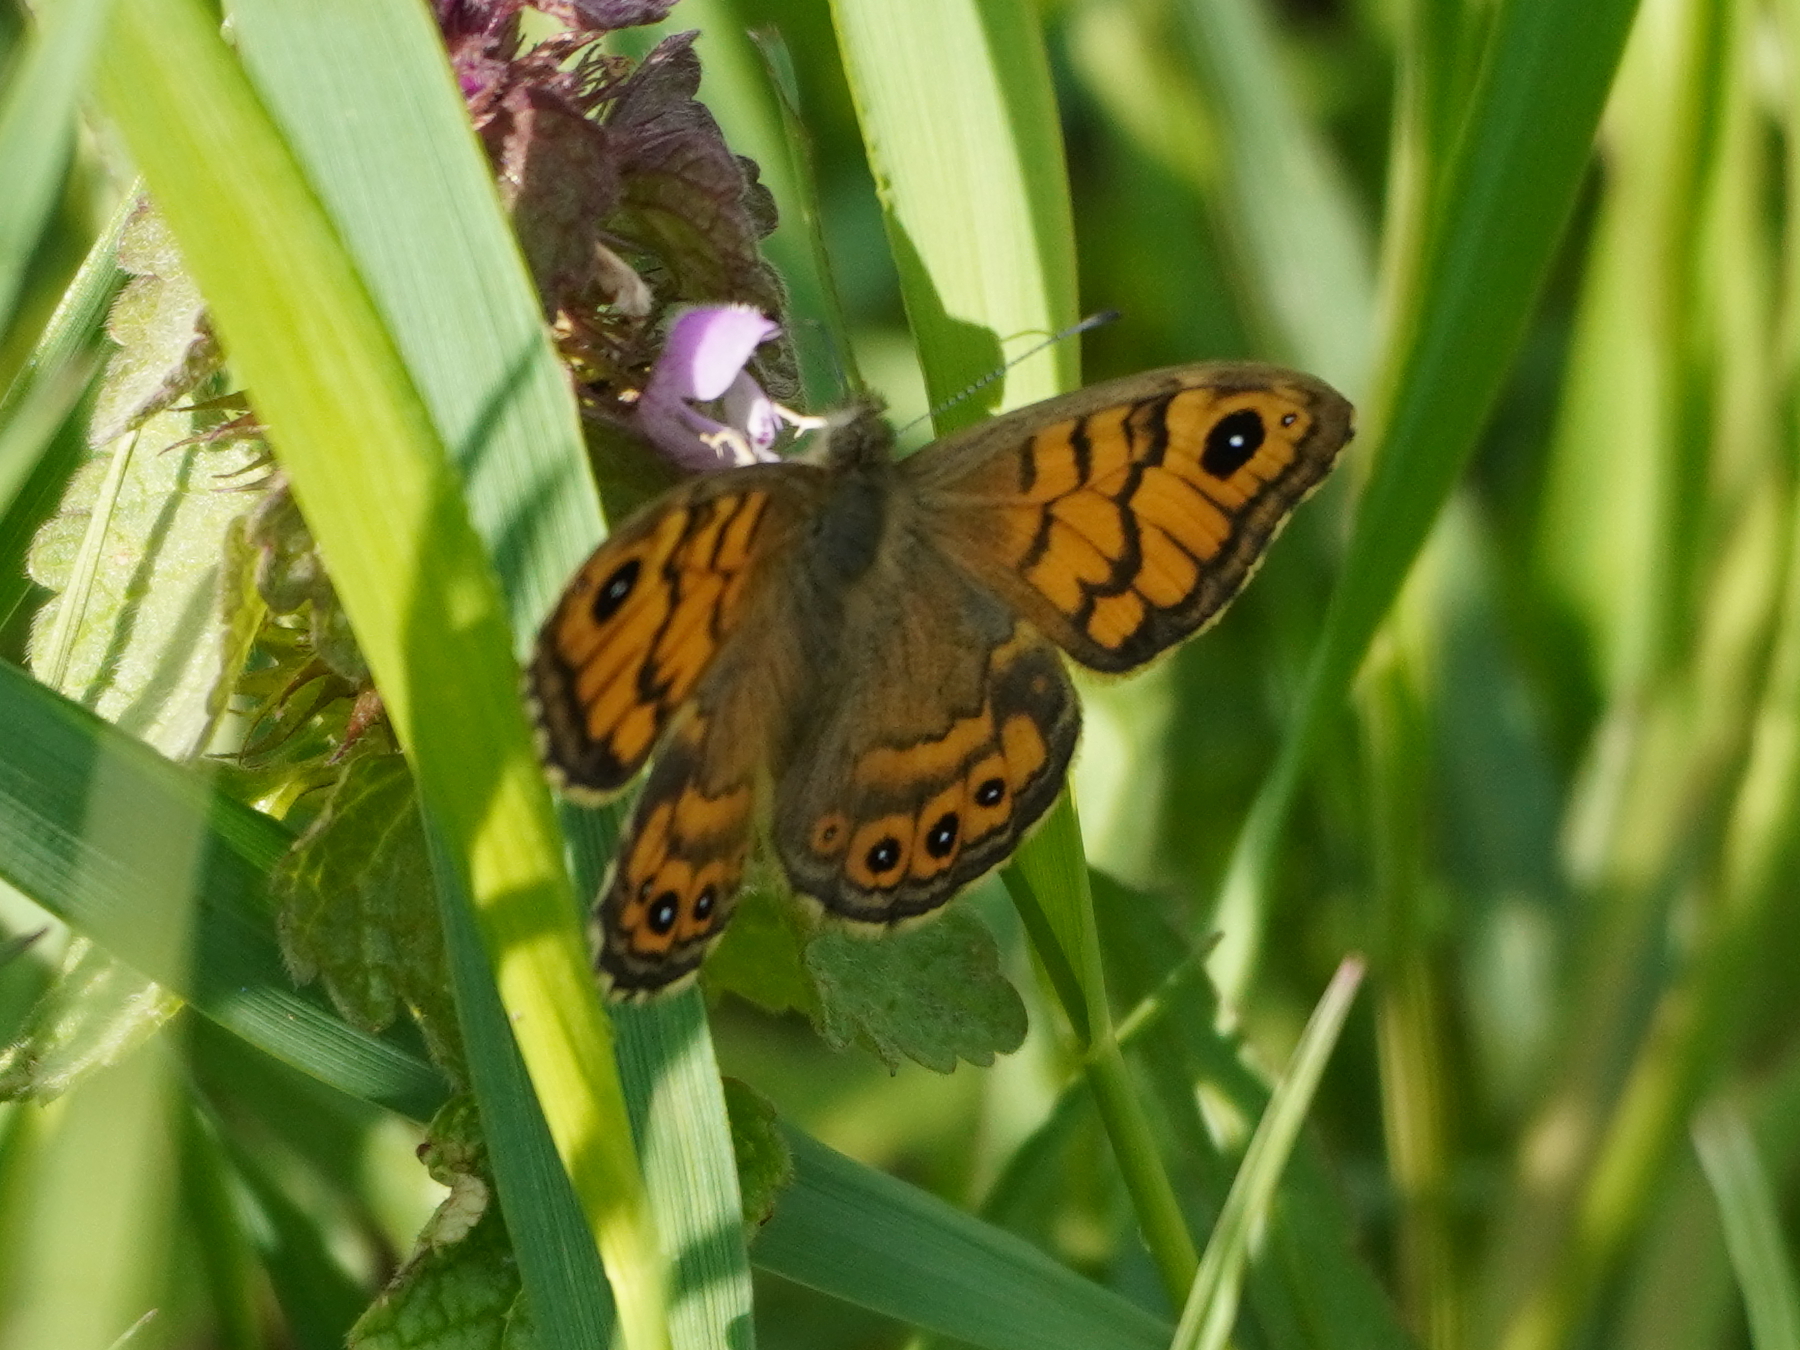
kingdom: Animalia
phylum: Arthropoda
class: Insecta
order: Lepidoptera
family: Nymphalidae
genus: Pararge
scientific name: Pararge Lasiommata megera
